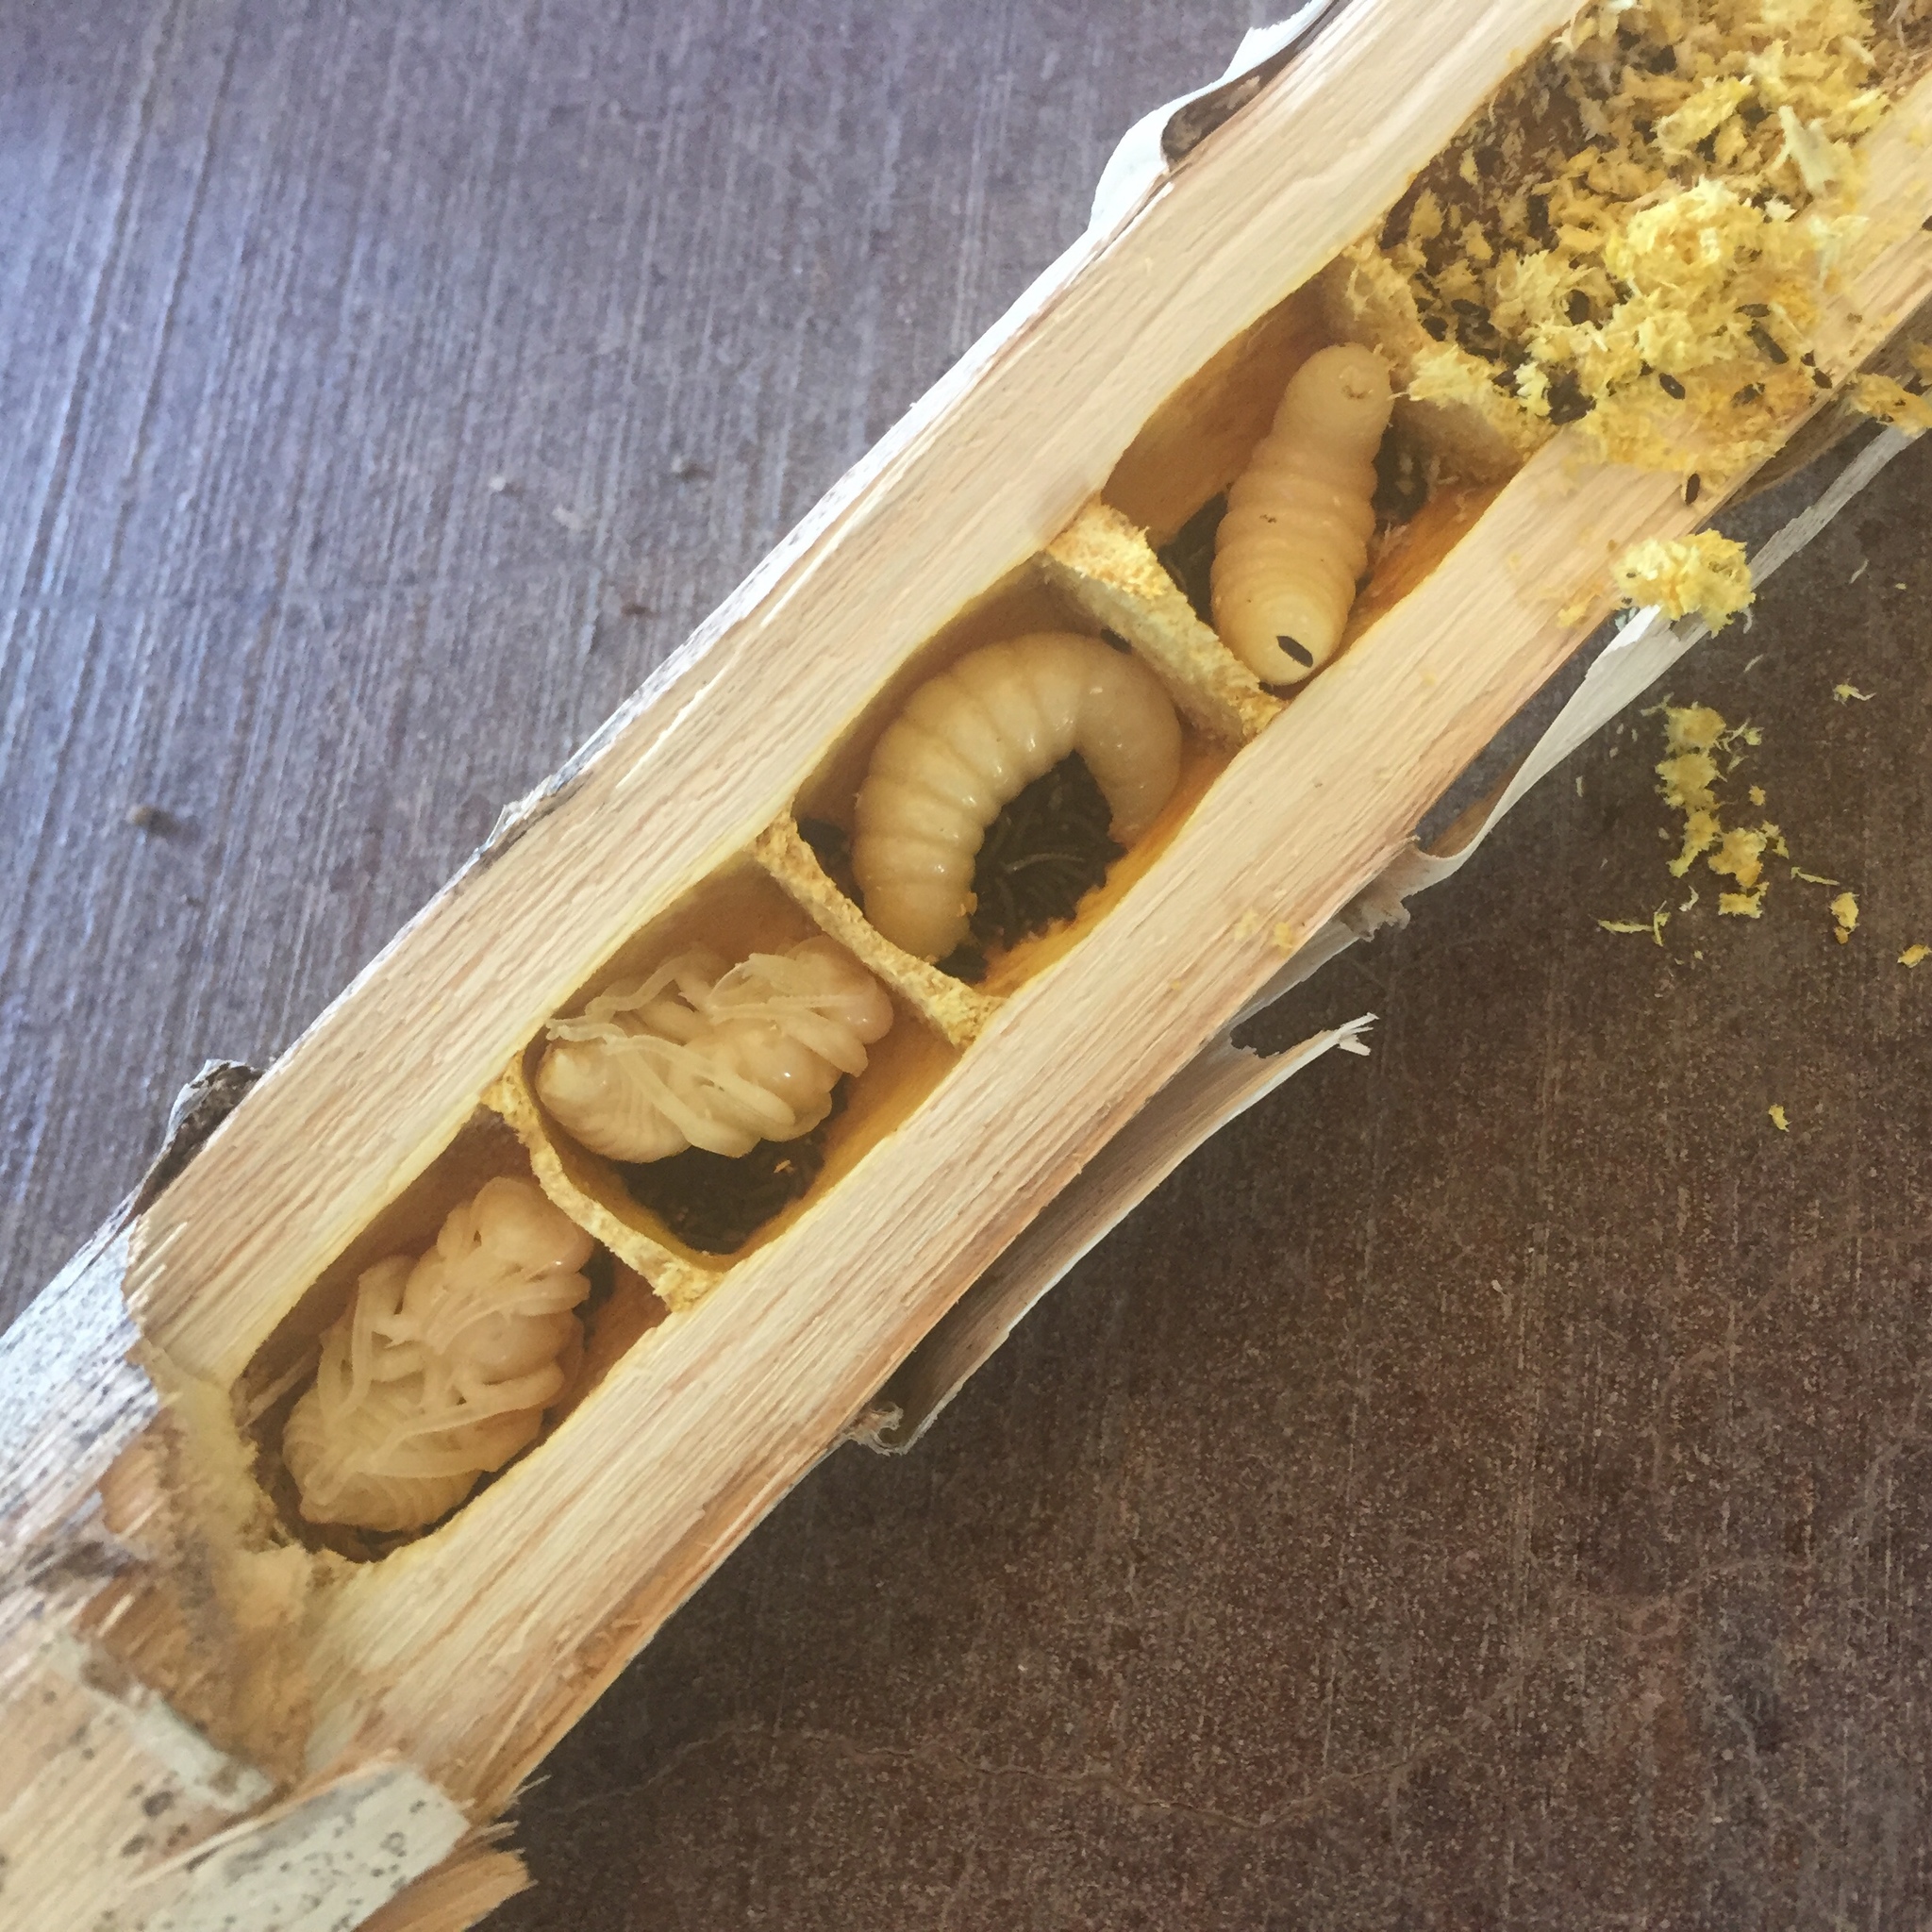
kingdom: Animalia
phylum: Arthropoda
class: Insecta
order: Hymenoptera
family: Apidae
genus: Xylocopa
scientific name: Xylocopa californica
